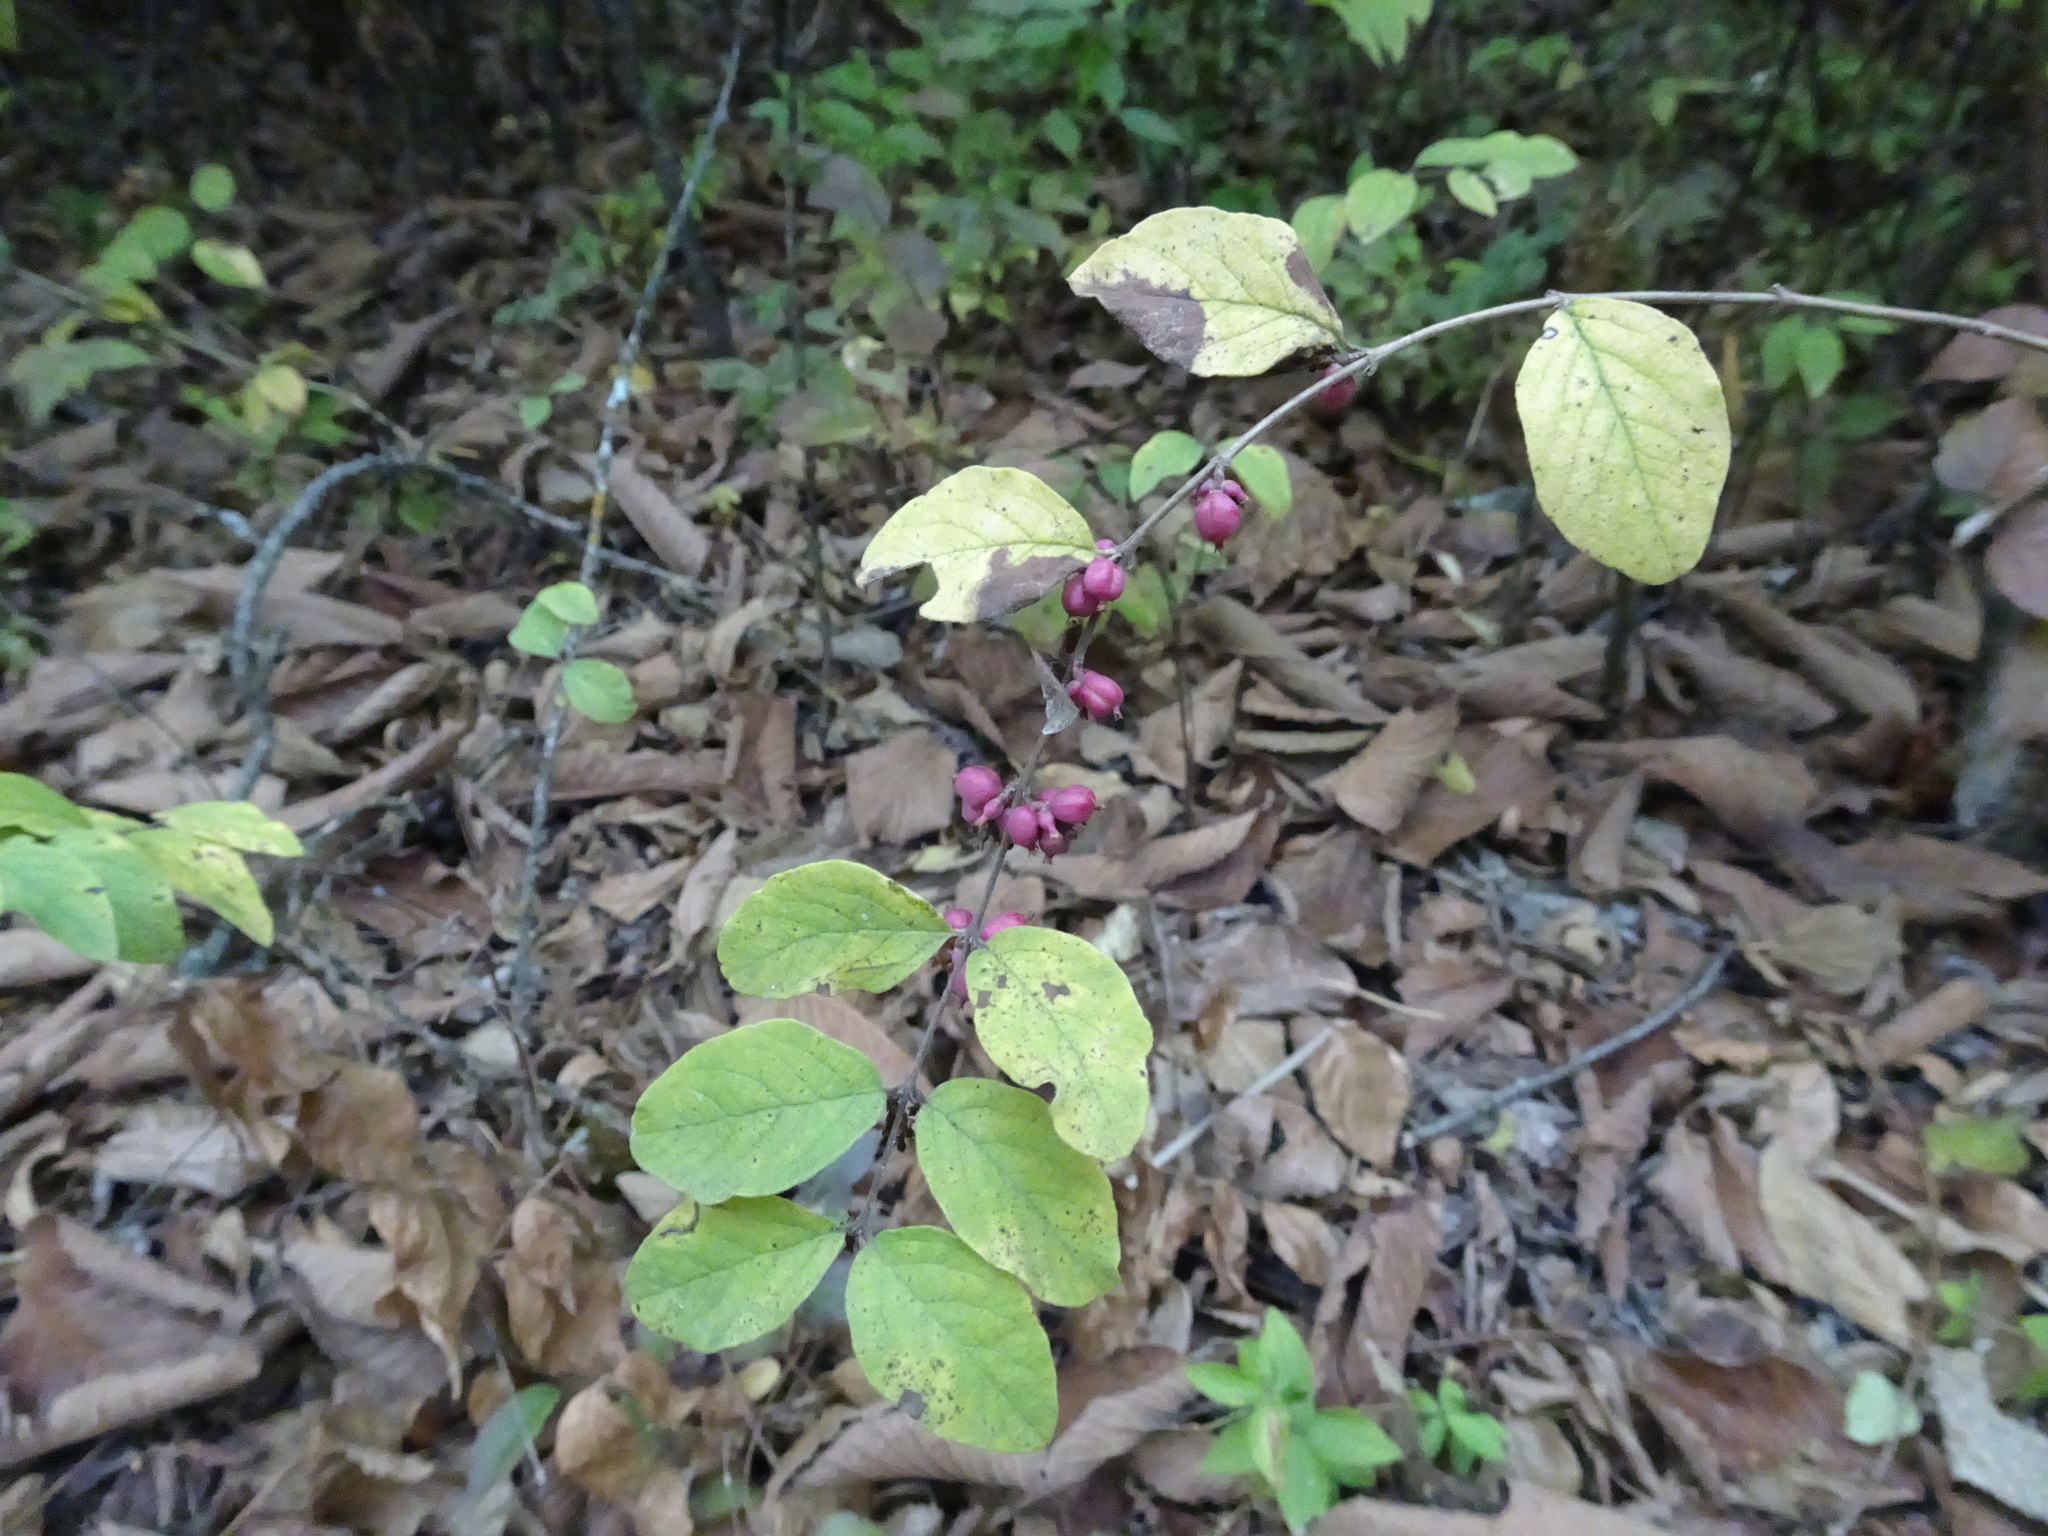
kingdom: Plantae
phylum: Tracheophyta
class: Magnoliopsida
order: Dipsacales
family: Caprifoliaceae
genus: Symphoricarpos
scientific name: Symphoricarpos orbiculatus
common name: Coralberry
